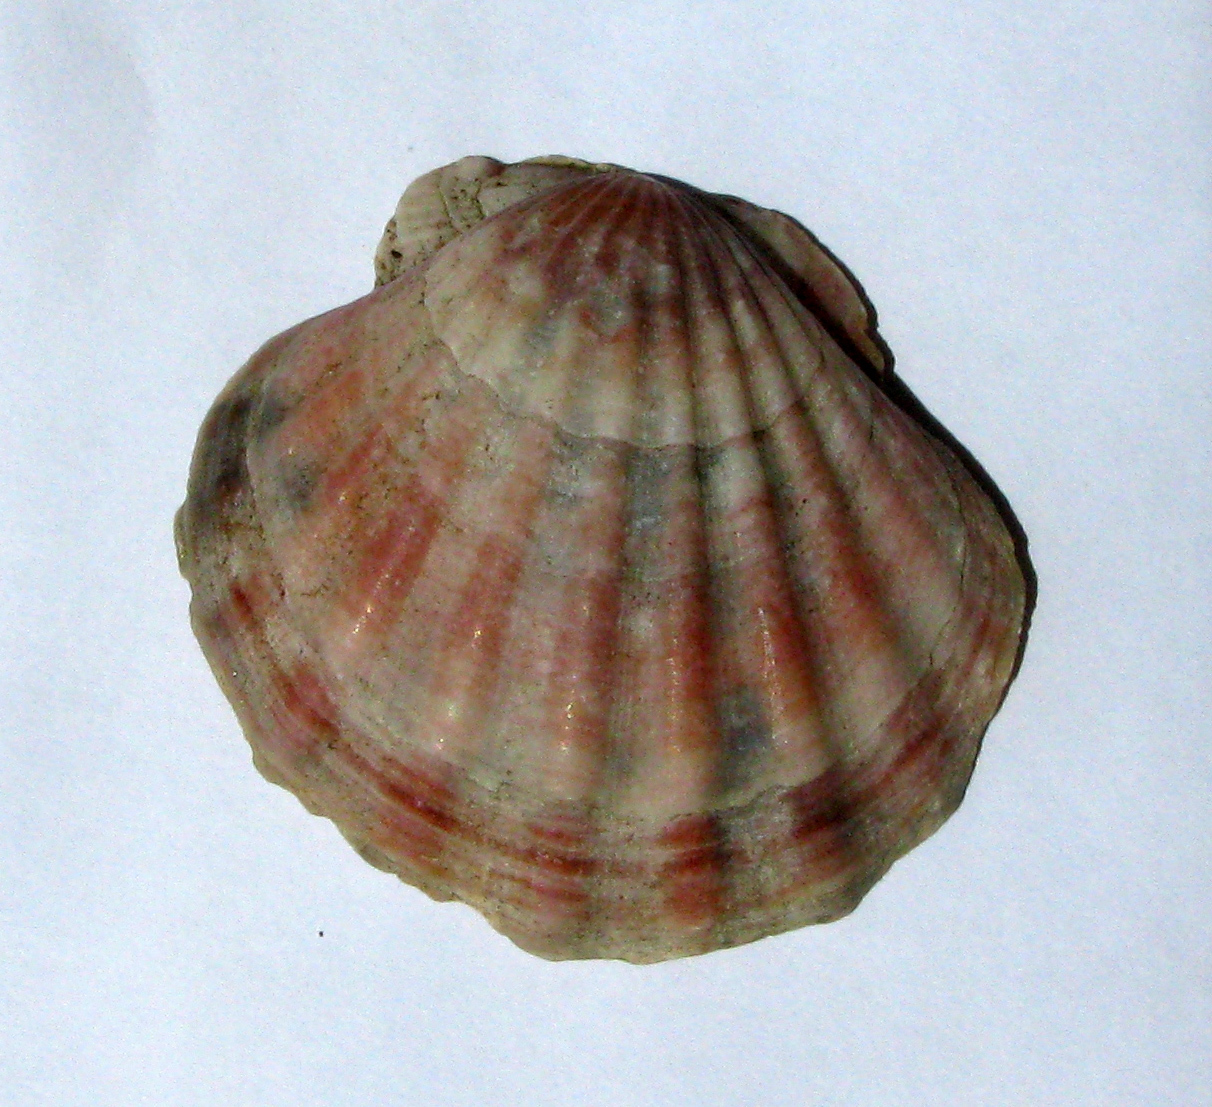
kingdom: Animalia
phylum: Mollusca
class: Bivalvia
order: Pectinida
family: Pectinidae
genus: Flexopecten
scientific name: Flexopecten glaber
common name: Smooth scallop
